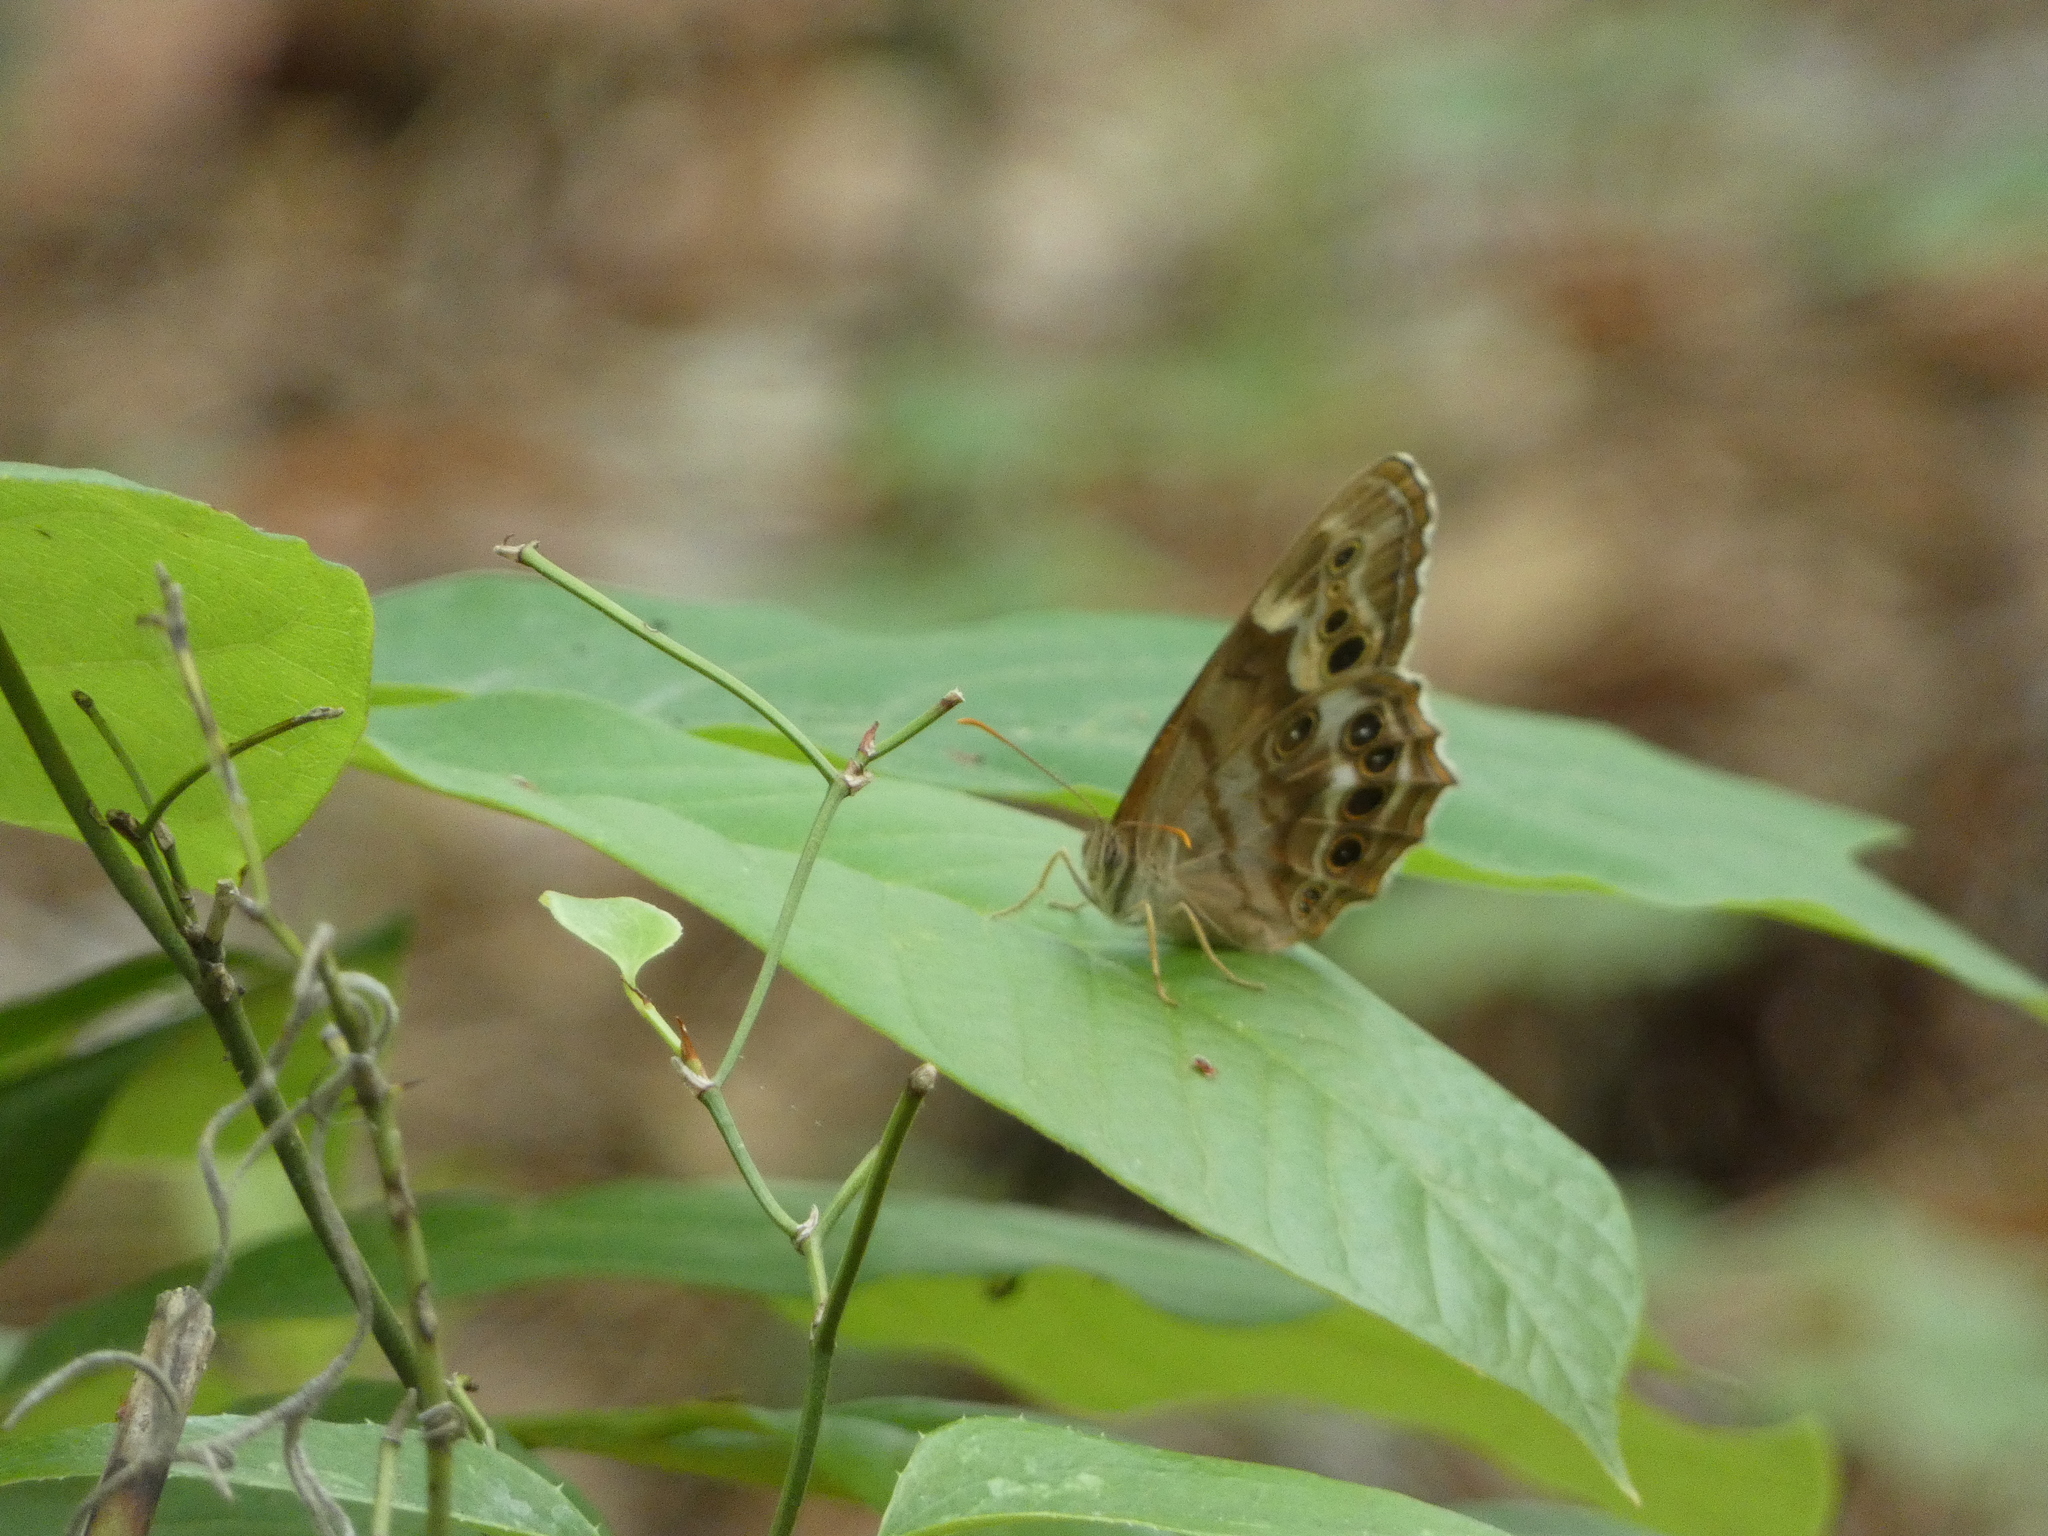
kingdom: Animalia
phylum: Arthropoda
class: Insecta
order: Lepidoptera
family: Nymphalidae
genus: Enodia
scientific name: Enodia portlandia
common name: Southern pearly-eye
